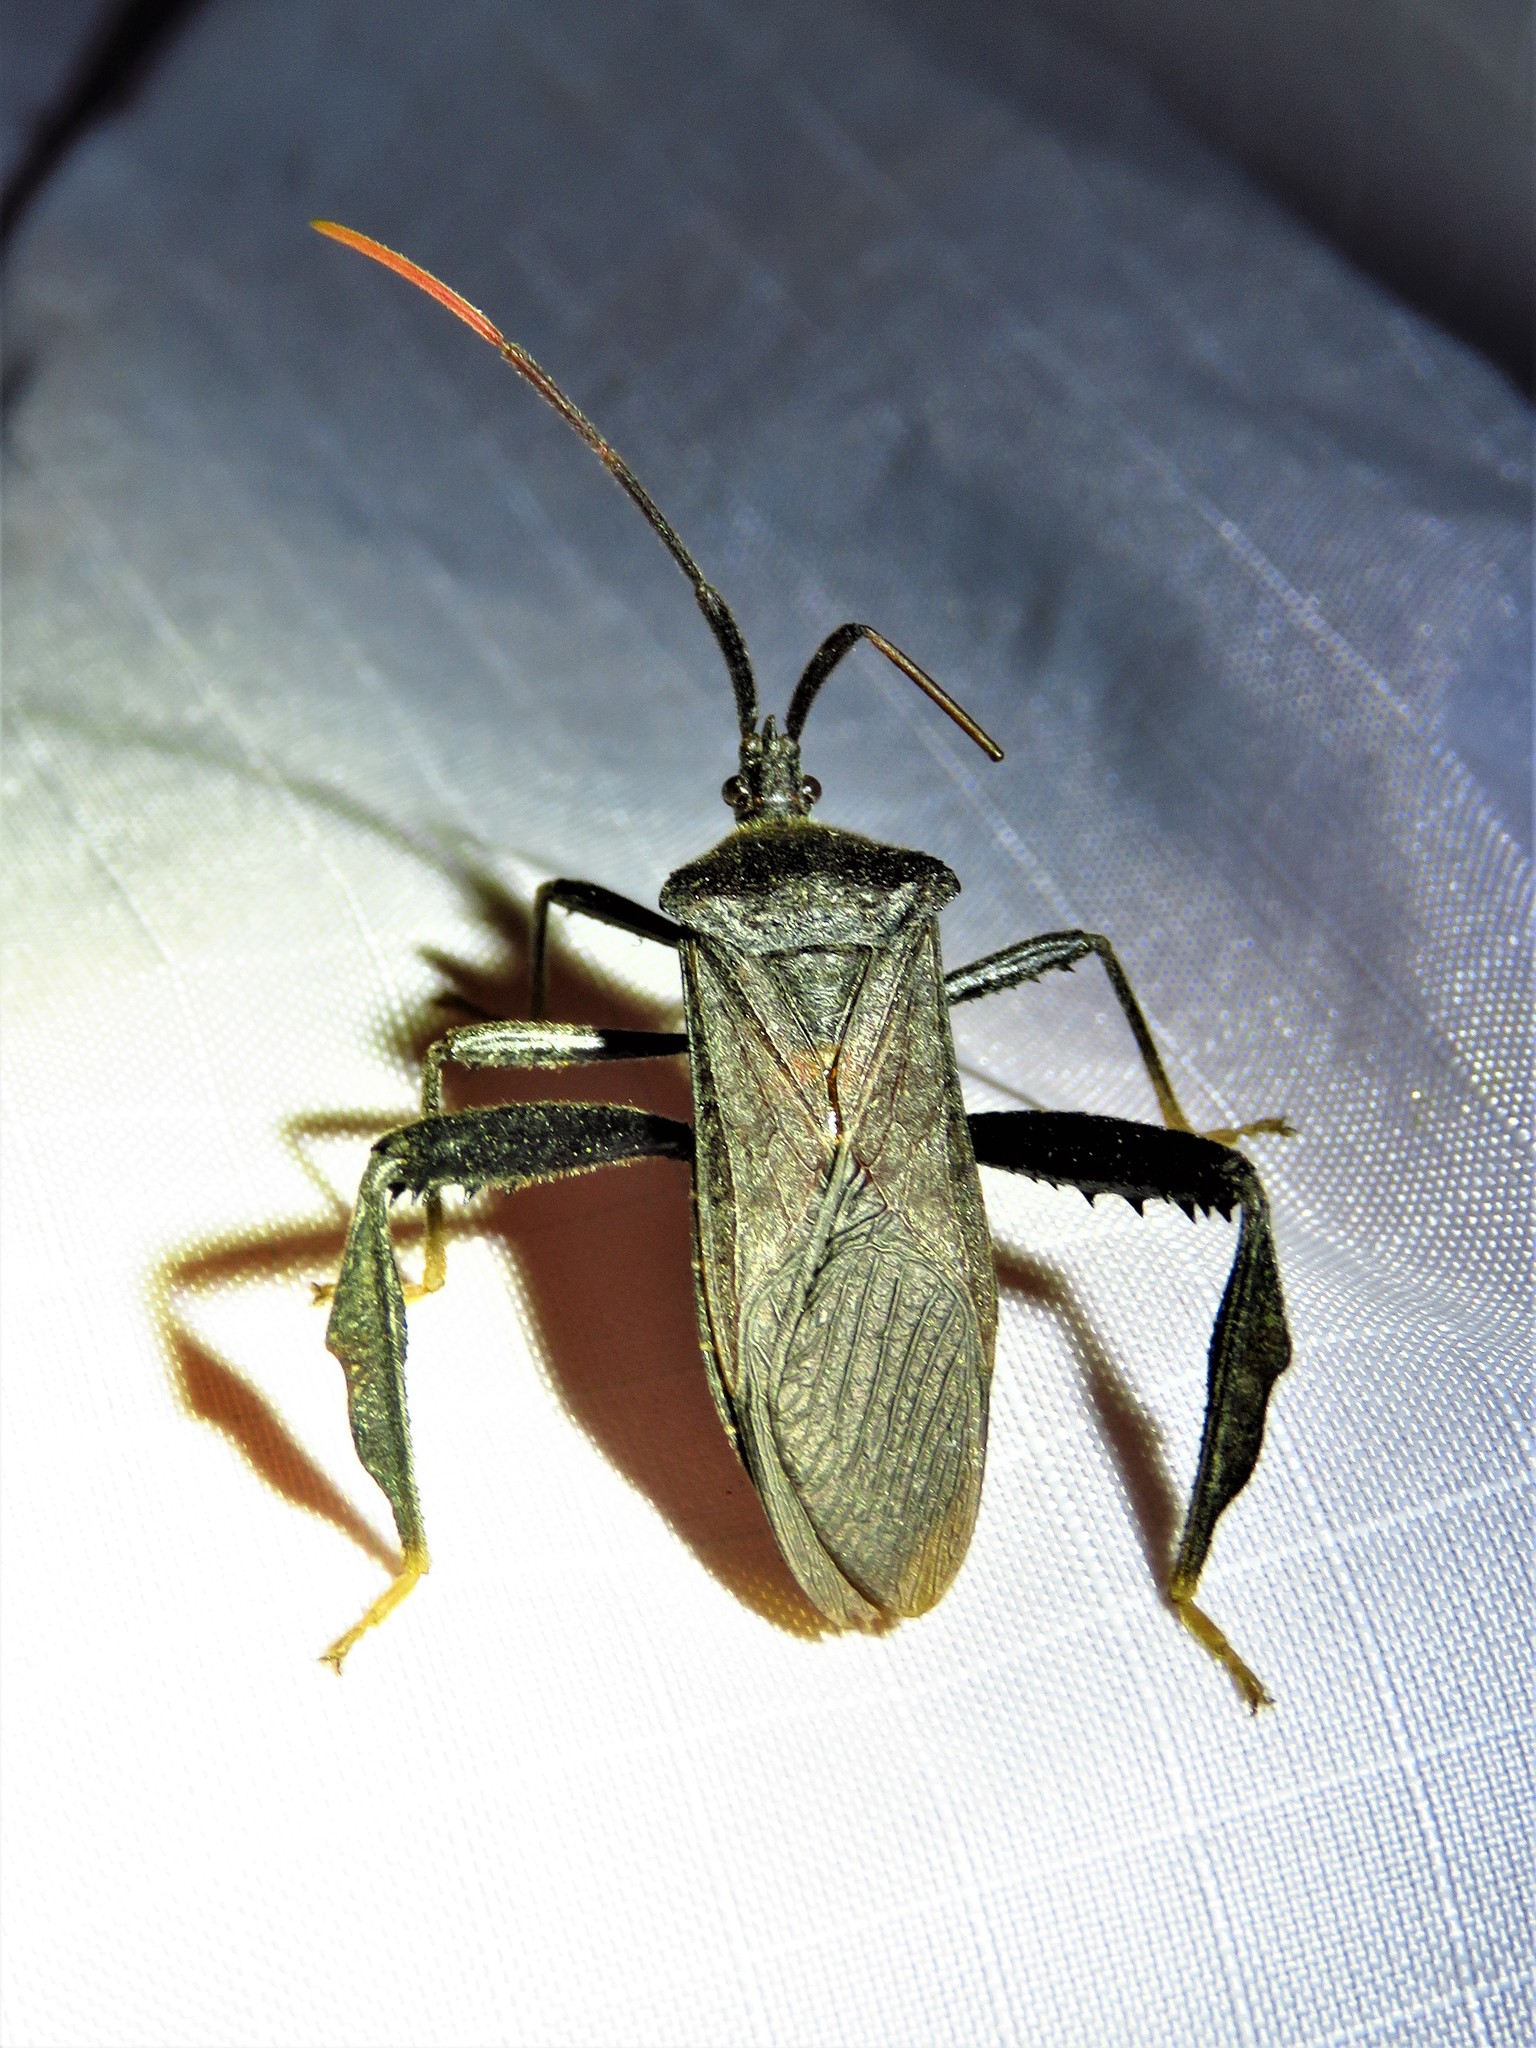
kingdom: Animalia
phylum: Arthropoda
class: Insecta
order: Hemiptera
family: Coreidae
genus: Acanthocephala
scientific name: Acanthocephala terminalis
